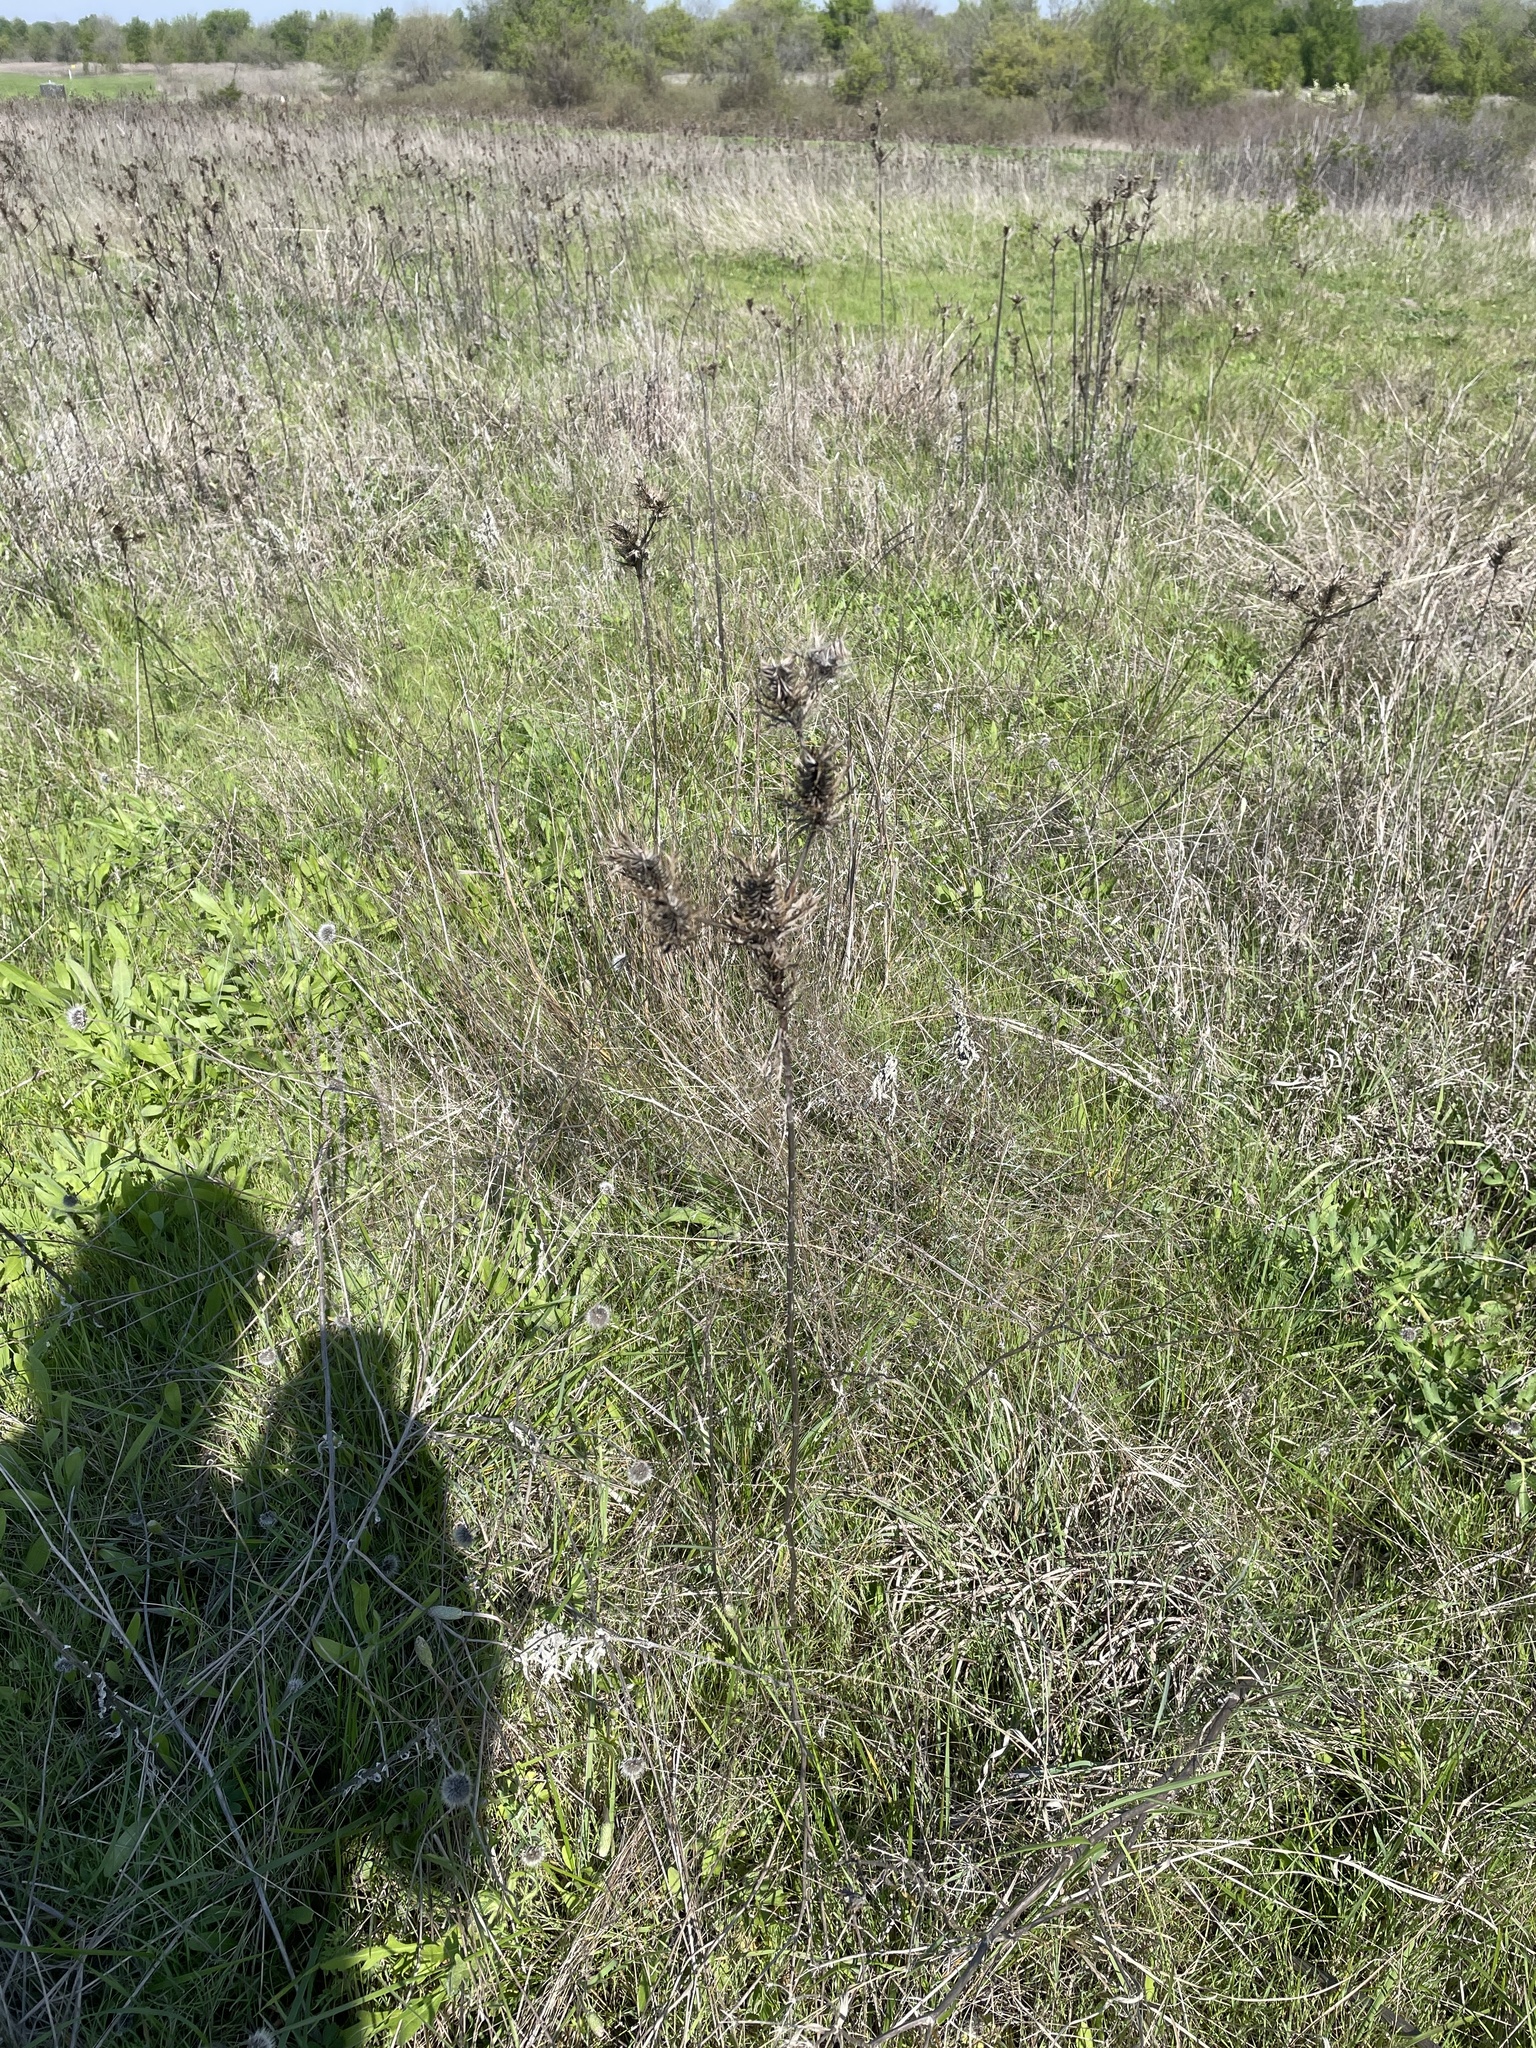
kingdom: Plantae
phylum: Tracheophyta
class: Magnoliopsida
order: Apiales
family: Apiaceae
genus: Eryngium
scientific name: Eryngium leavenworthii
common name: Leavenworth's eryngo
